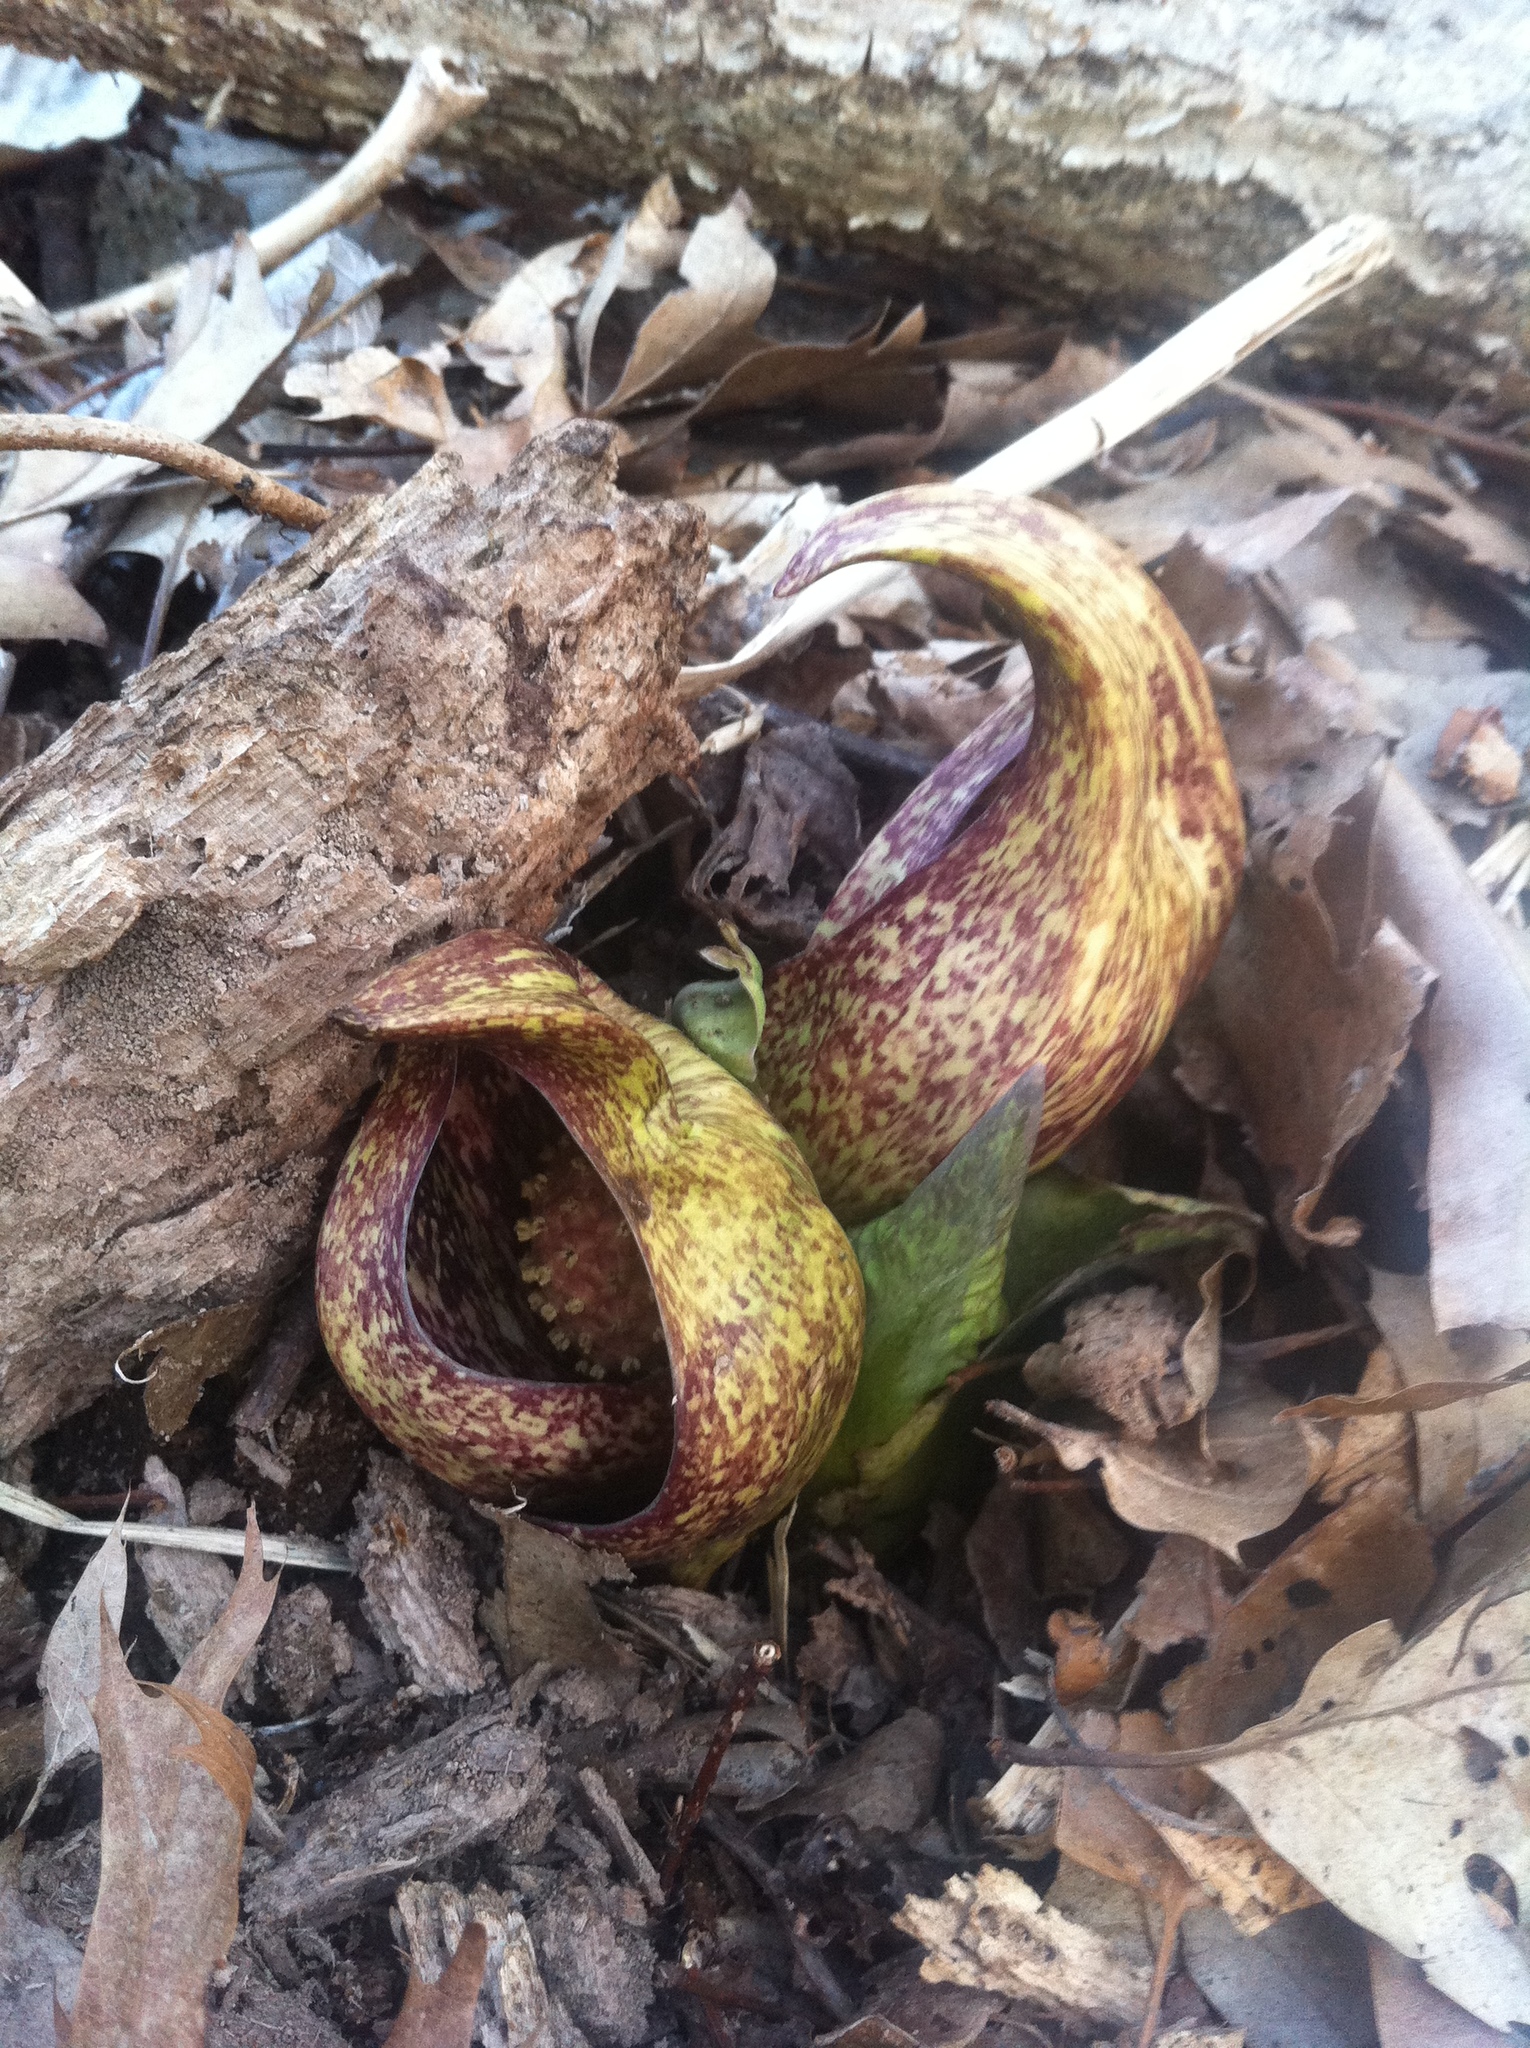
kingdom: Plantae
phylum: Tracheophyta
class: Liliopsida
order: Alismatales
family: Araceae
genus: Symplocarpus
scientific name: Symplocarpus foetidus
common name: Eastern skunk cabbage
